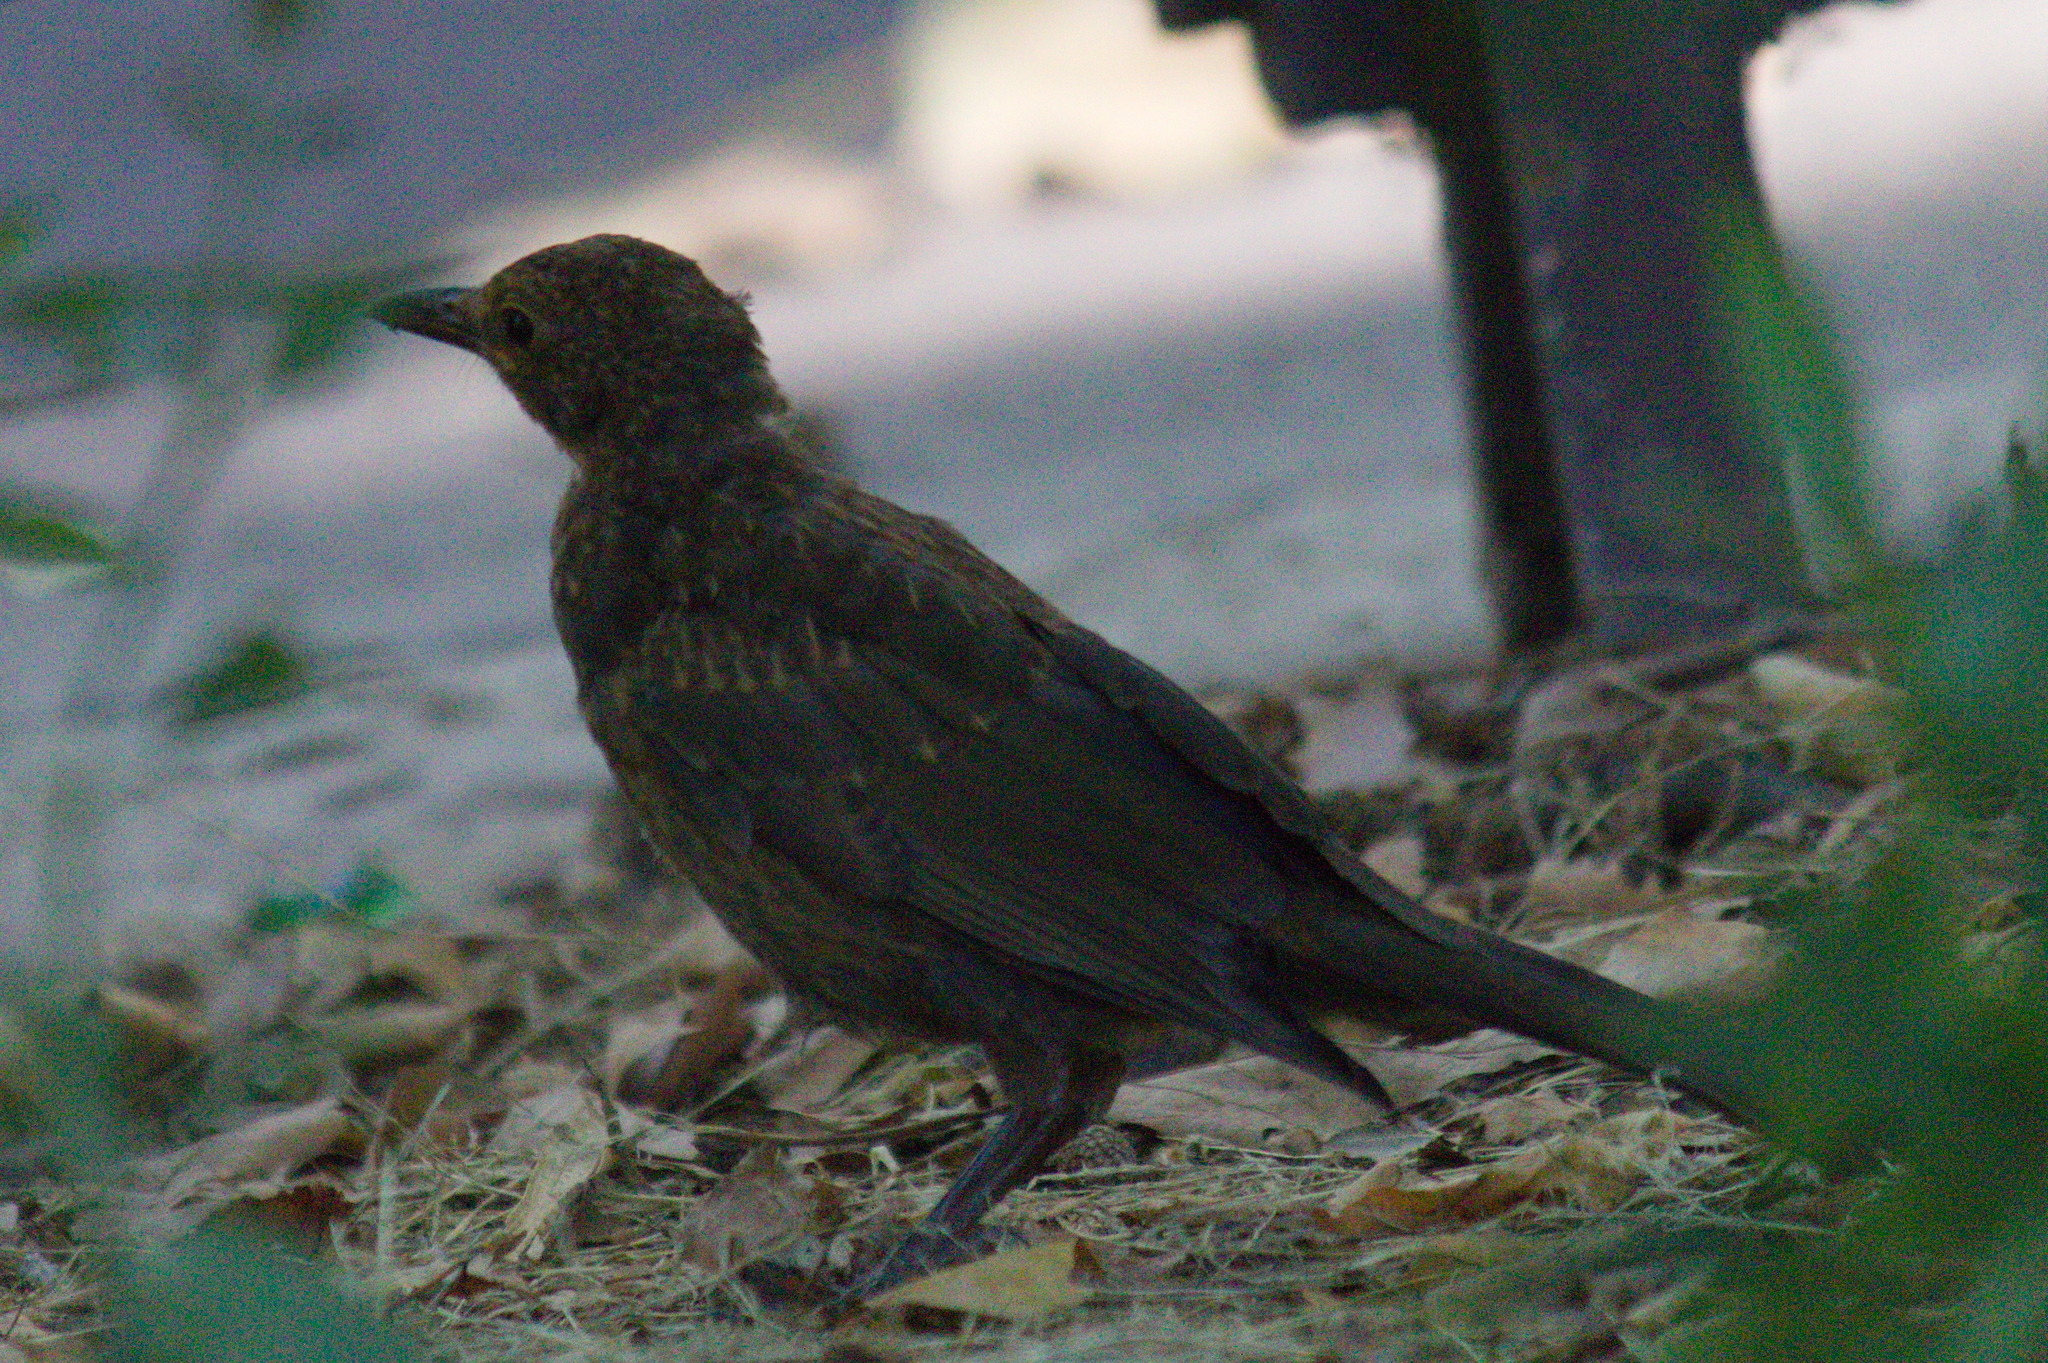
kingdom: Animalia
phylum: Chordata
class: Aves
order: Passeriformes
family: Turdidae
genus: Turdus
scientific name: Turdus merula
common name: Common blackbird
